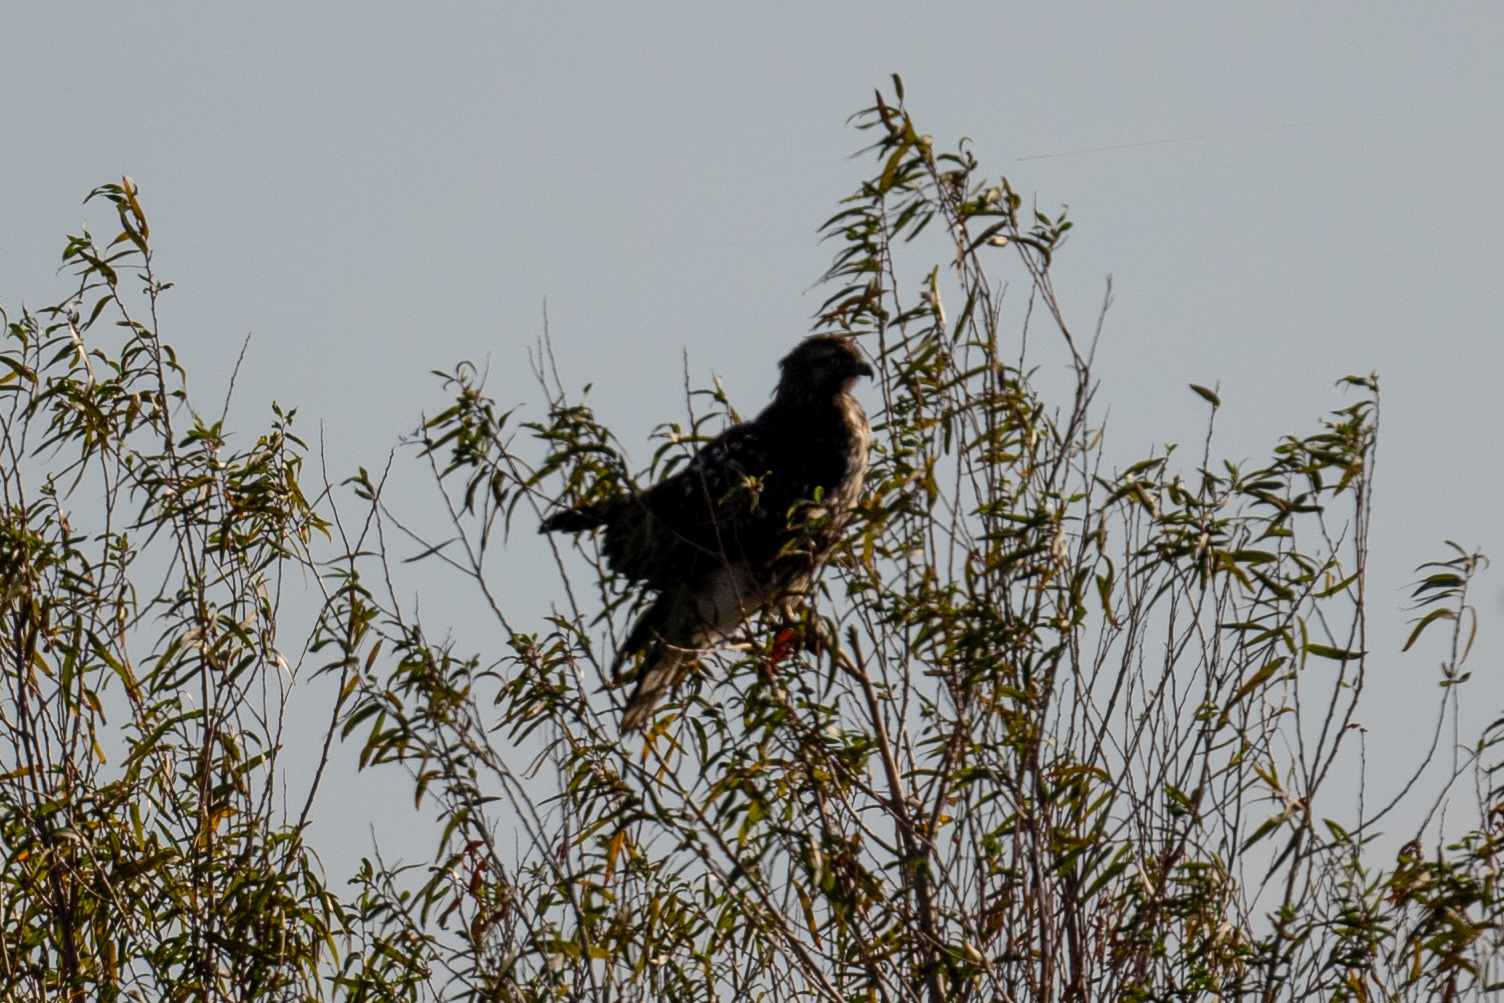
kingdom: Animalia
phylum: Chordata
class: Aves
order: Accipitriformes
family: Accipitridae
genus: Buteo
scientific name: Buteo jamaicensis
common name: Red-tailed hawk
